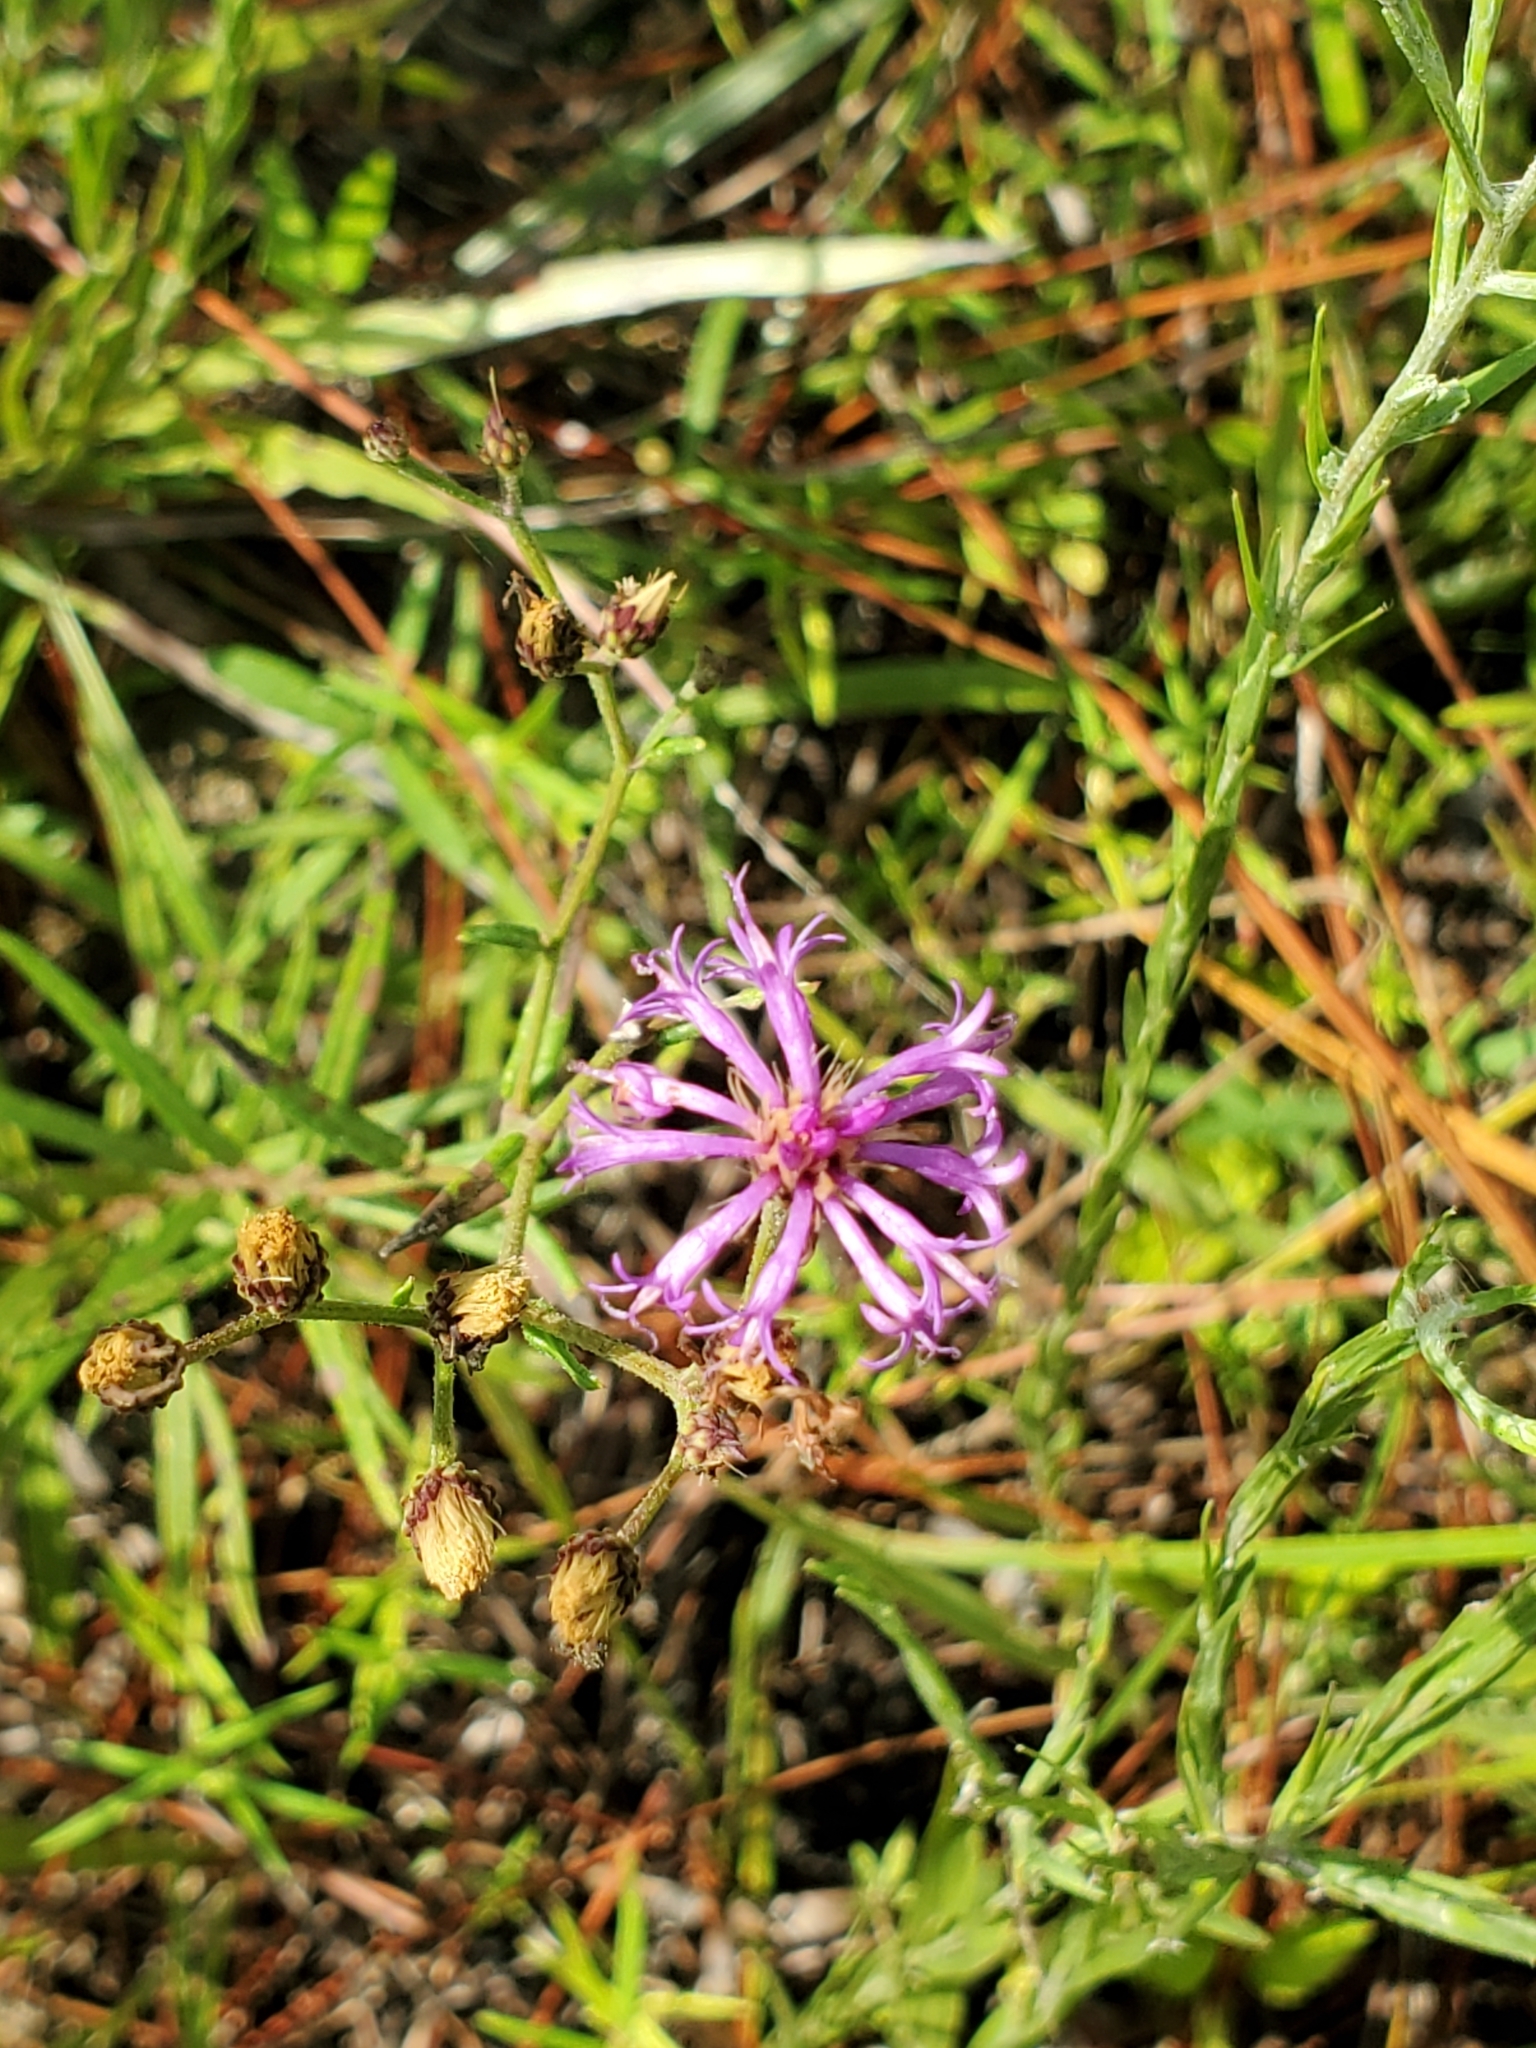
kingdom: Plantae
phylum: Tracheophyta
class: Magnoliopsida
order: Asterales
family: Asteraceae
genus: Vernonia
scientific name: Vernonia texana
